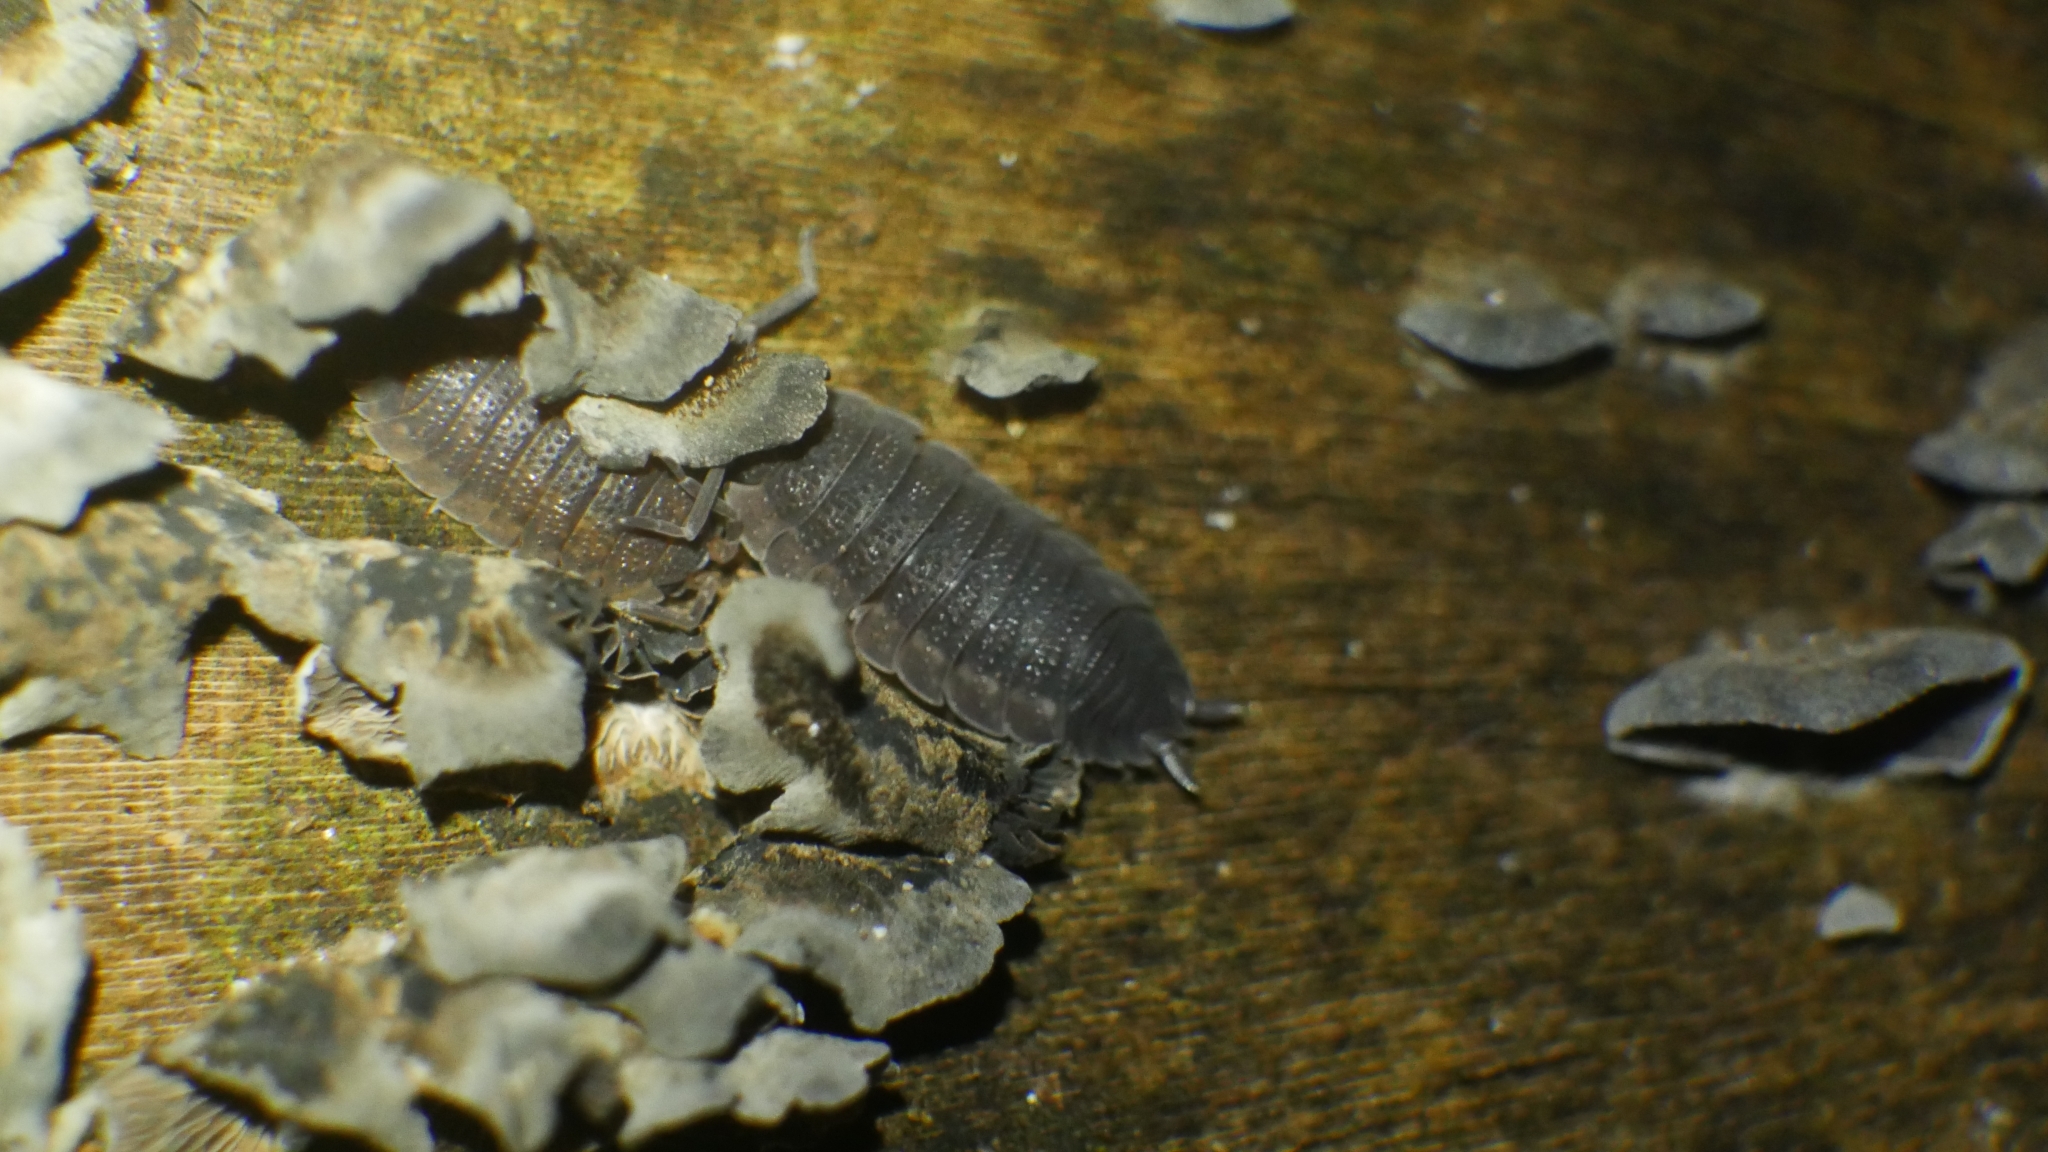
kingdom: Animalia
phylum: Arthropoda
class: Malacostraca
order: Isopoda
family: Porcellionidae
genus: Porcellio
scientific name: Porcellio scaber
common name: Common rough woodlouse
